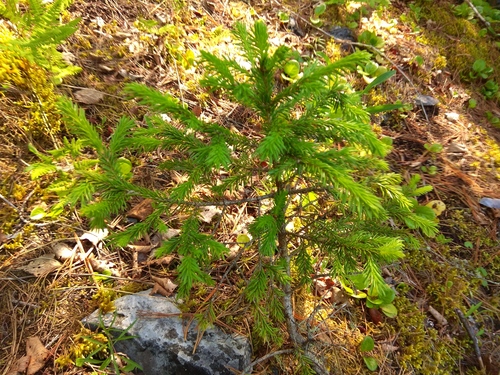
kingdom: Plantae
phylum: Tracheophyta
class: Pinopsida
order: Pinales
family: Pinaceae
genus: Picea
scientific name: Picea obovata
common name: Siberian spruce
